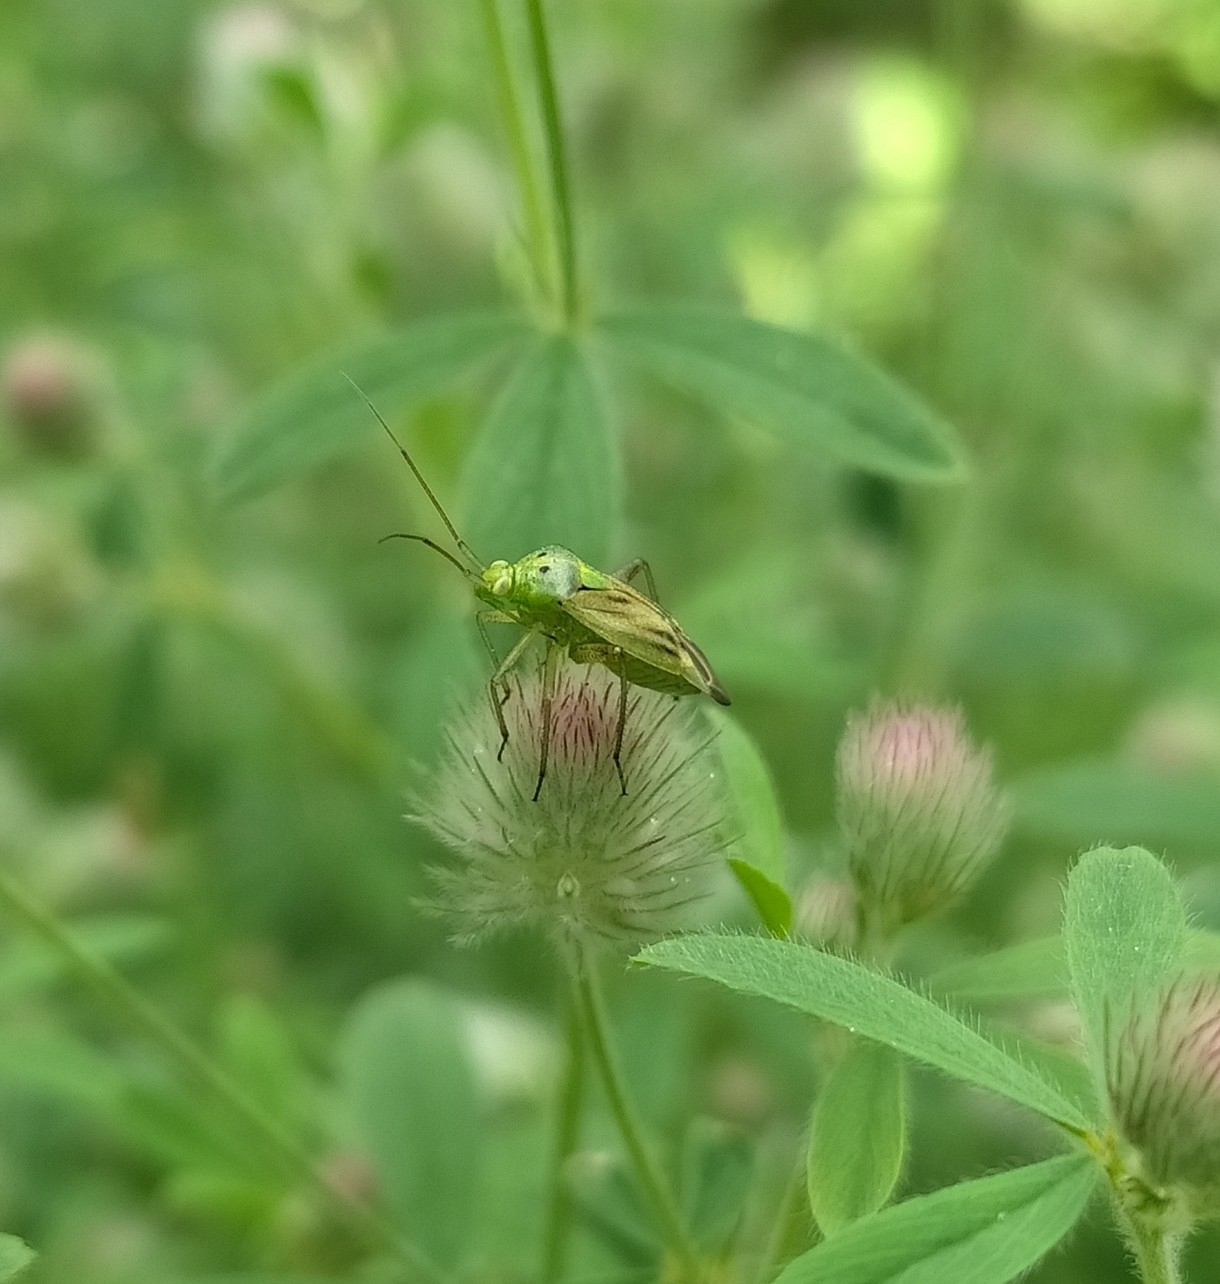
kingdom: Animalia
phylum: Arthropoda
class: Insecta
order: Hemiptera
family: Miridae
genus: Closterotomus
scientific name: Closterotomus norvegicus
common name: Plant bug
